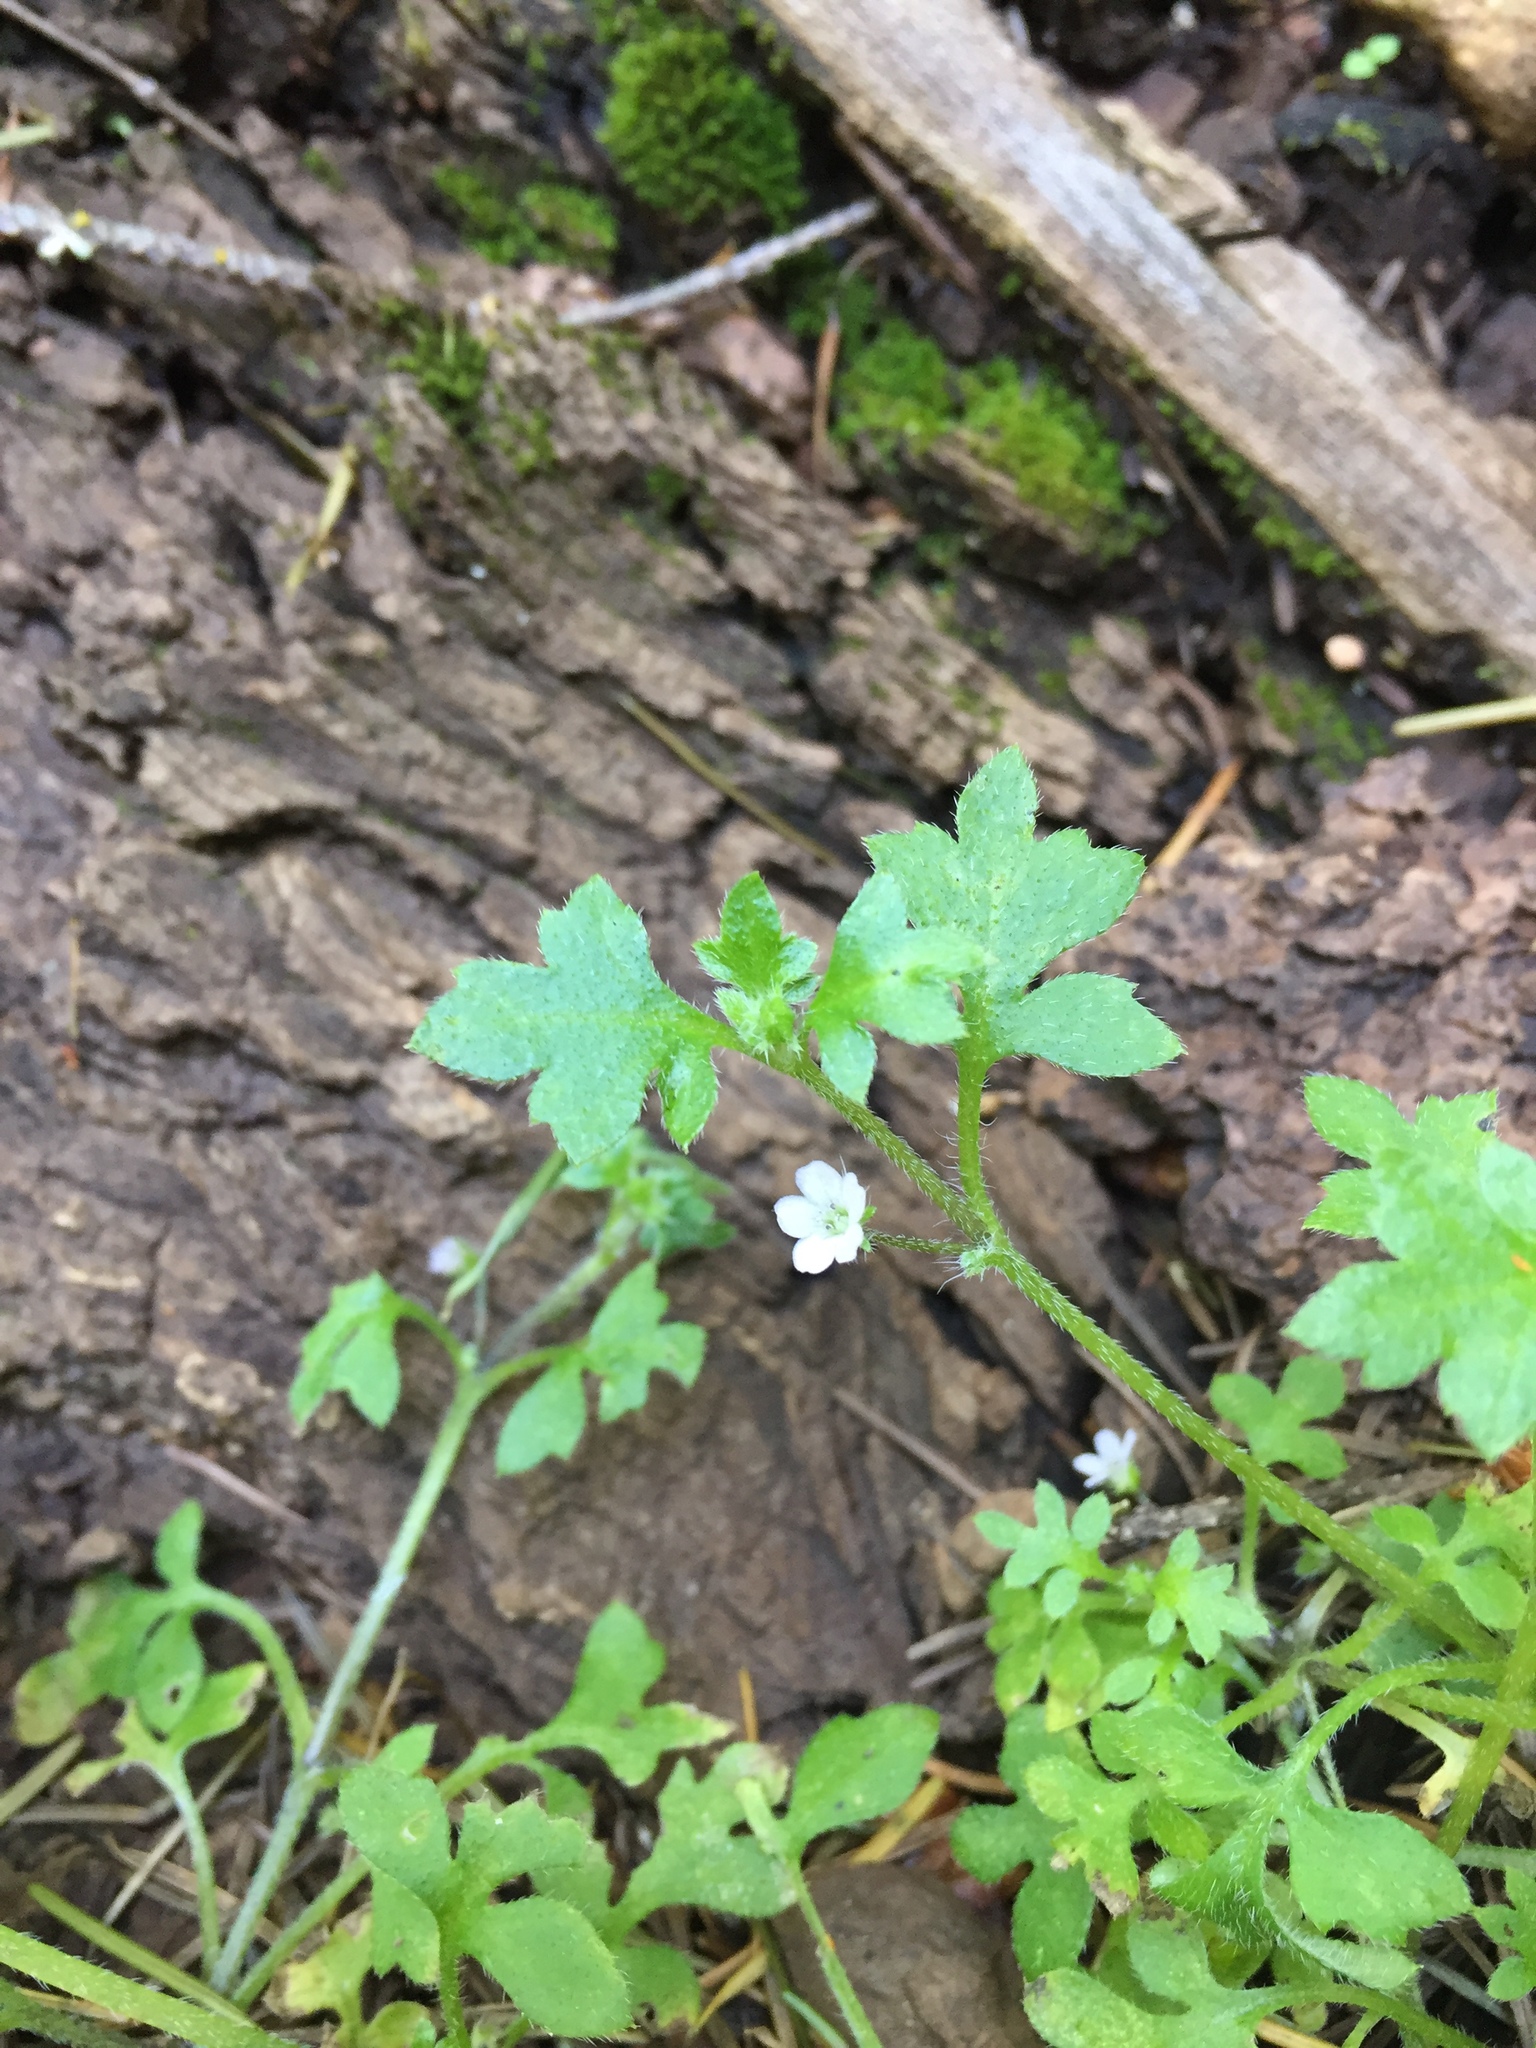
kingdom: Plantae
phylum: Tracheophyta
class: Magnoliopsida
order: Boraginales
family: Hydrophyllaceae
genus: Nemophila
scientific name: Nemophila heterophylla
